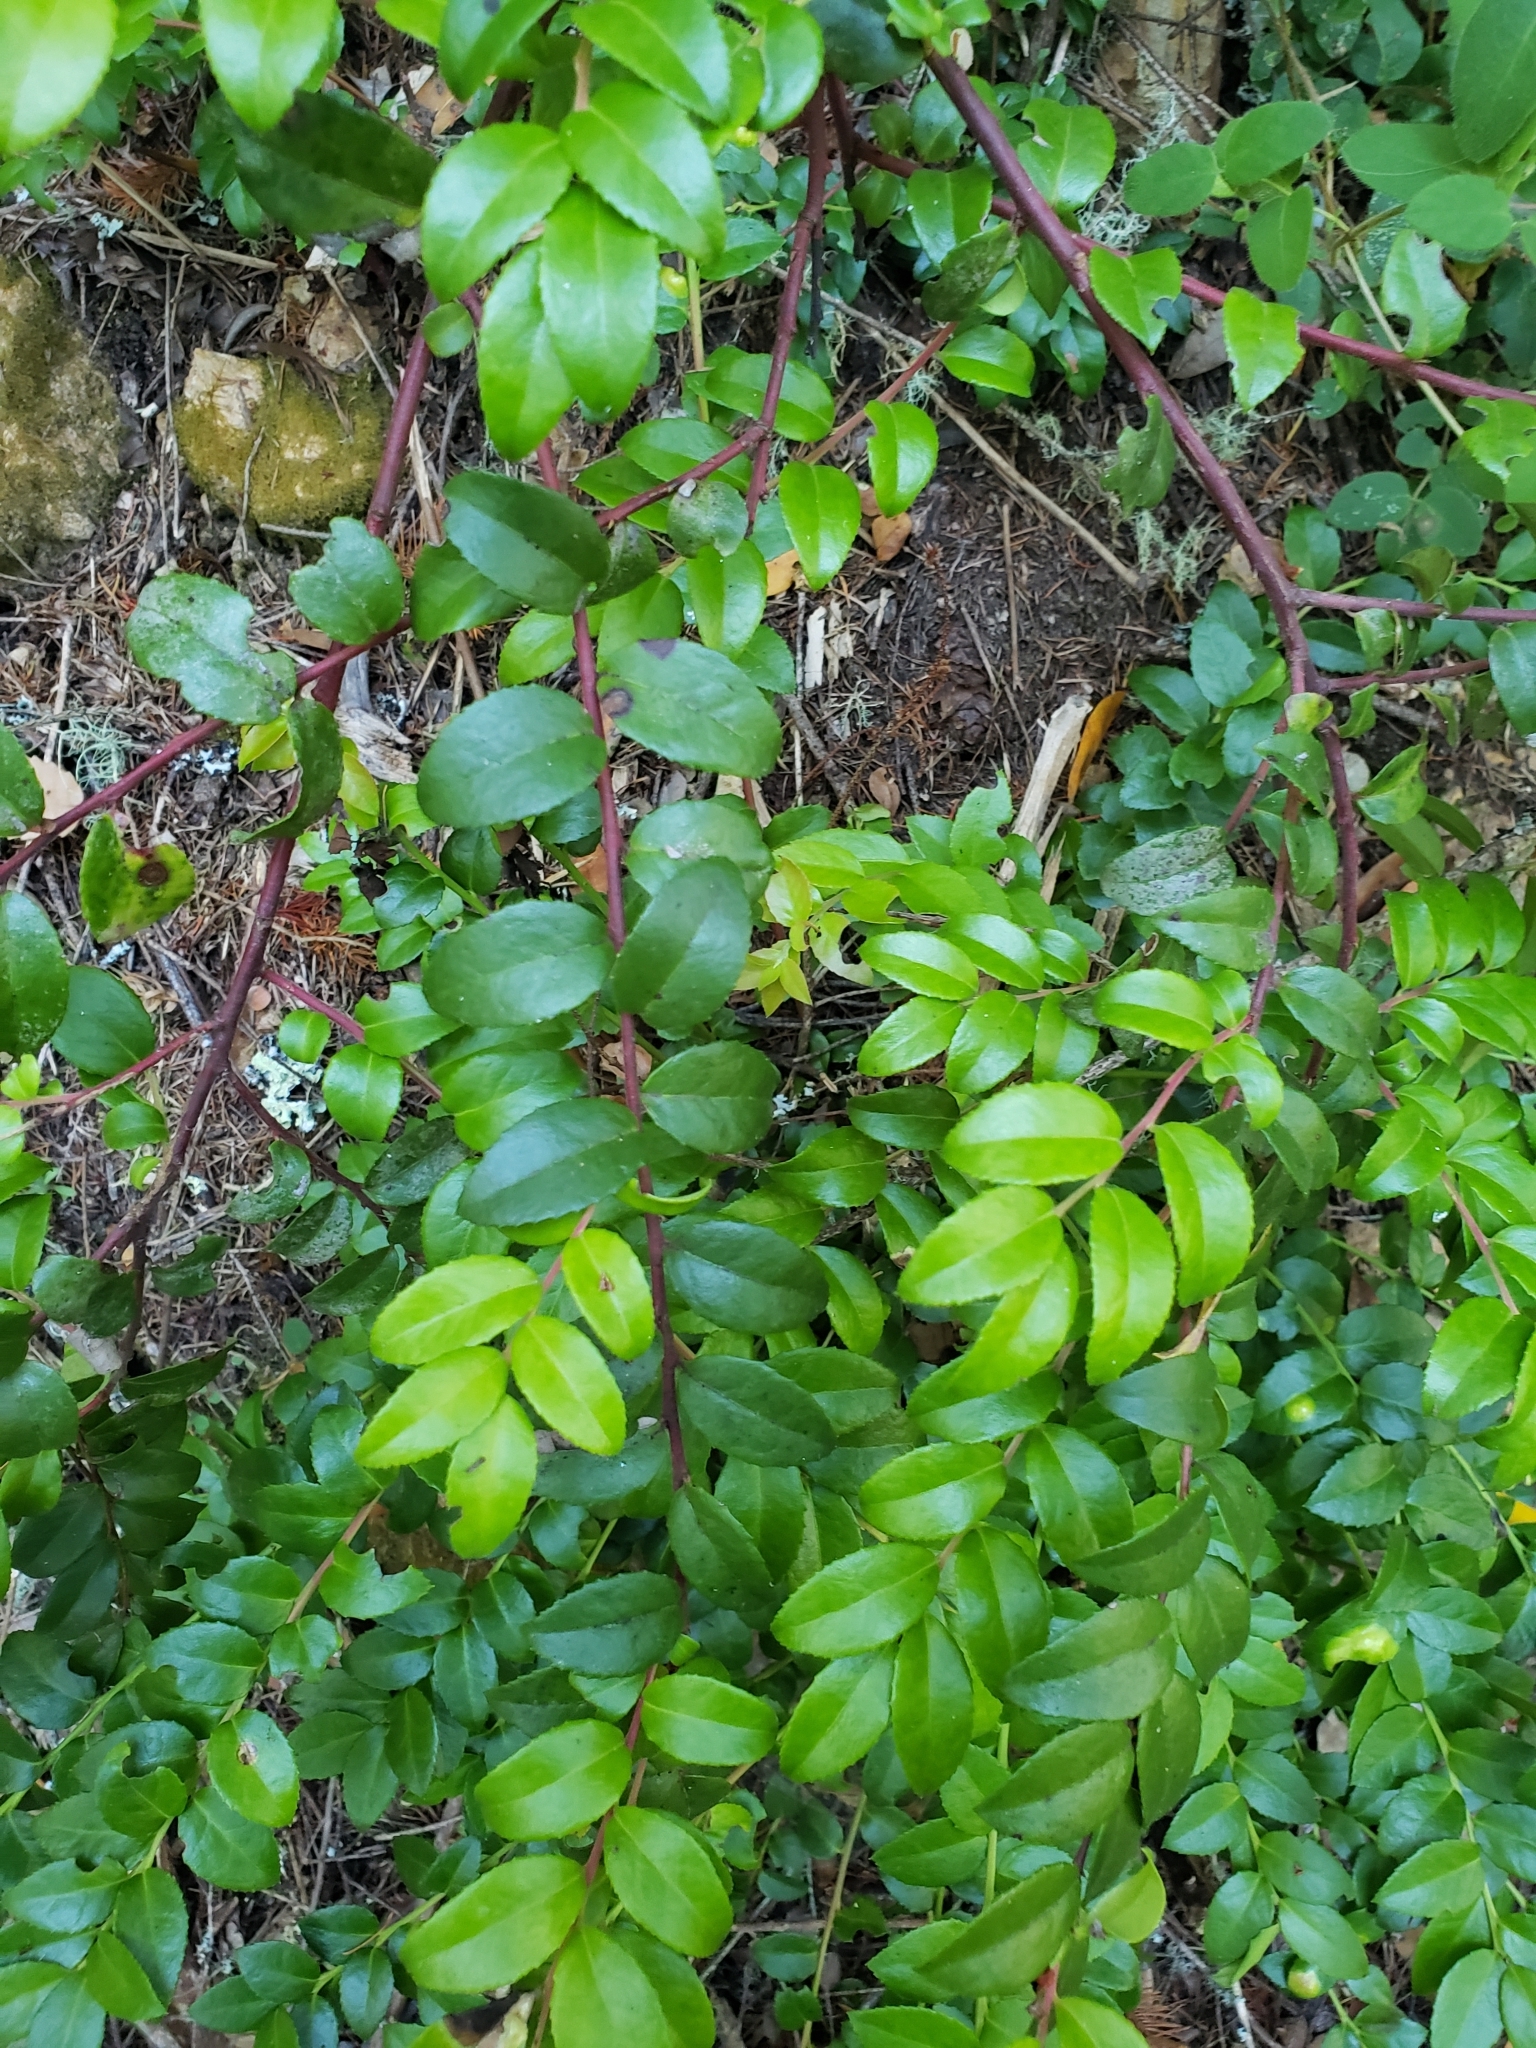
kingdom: Plantae
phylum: Tracheophyta
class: Magnoliopsida
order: Ericales
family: Ericaceae
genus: Vaccinium
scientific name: Vaccinium ovatum
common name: California-huckleberry
